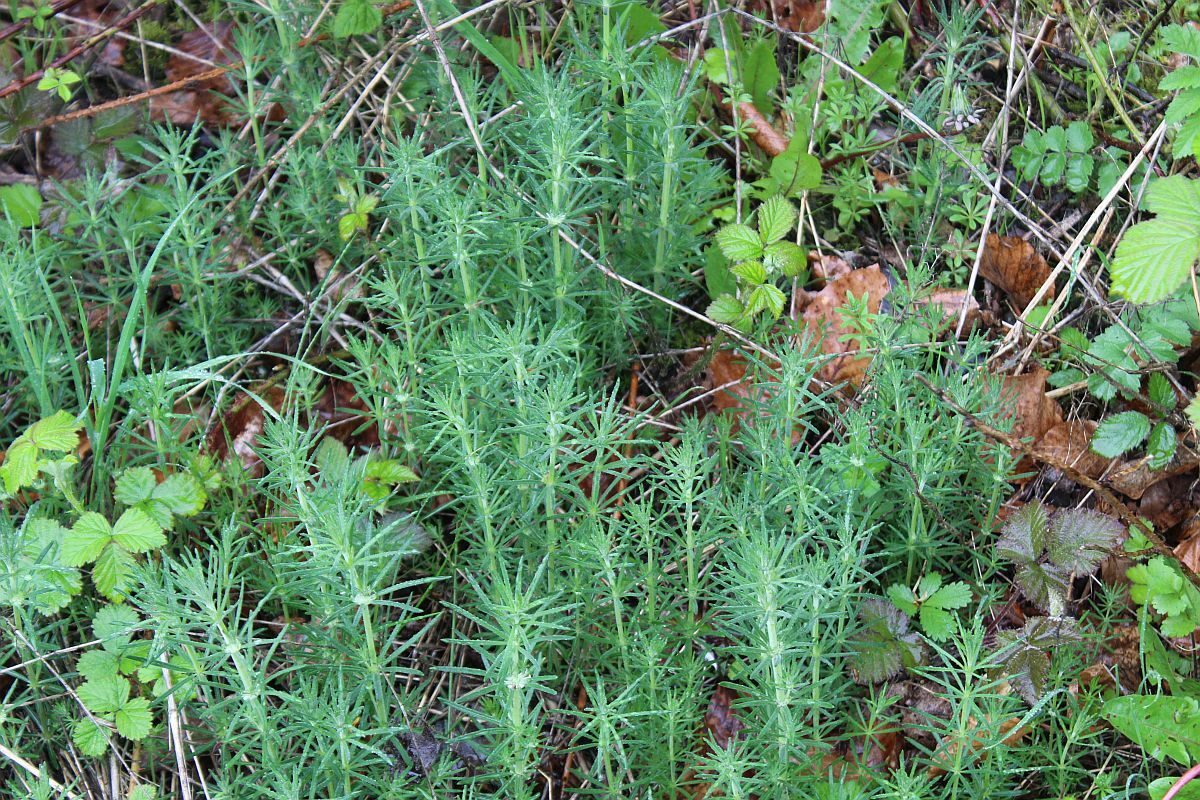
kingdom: Plantae
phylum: Tracheophyta
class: Magnoliopsida
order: Gentianales
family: Rubiaceae
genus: Galium
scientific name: Galium verum
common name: Lady's bedstraw
